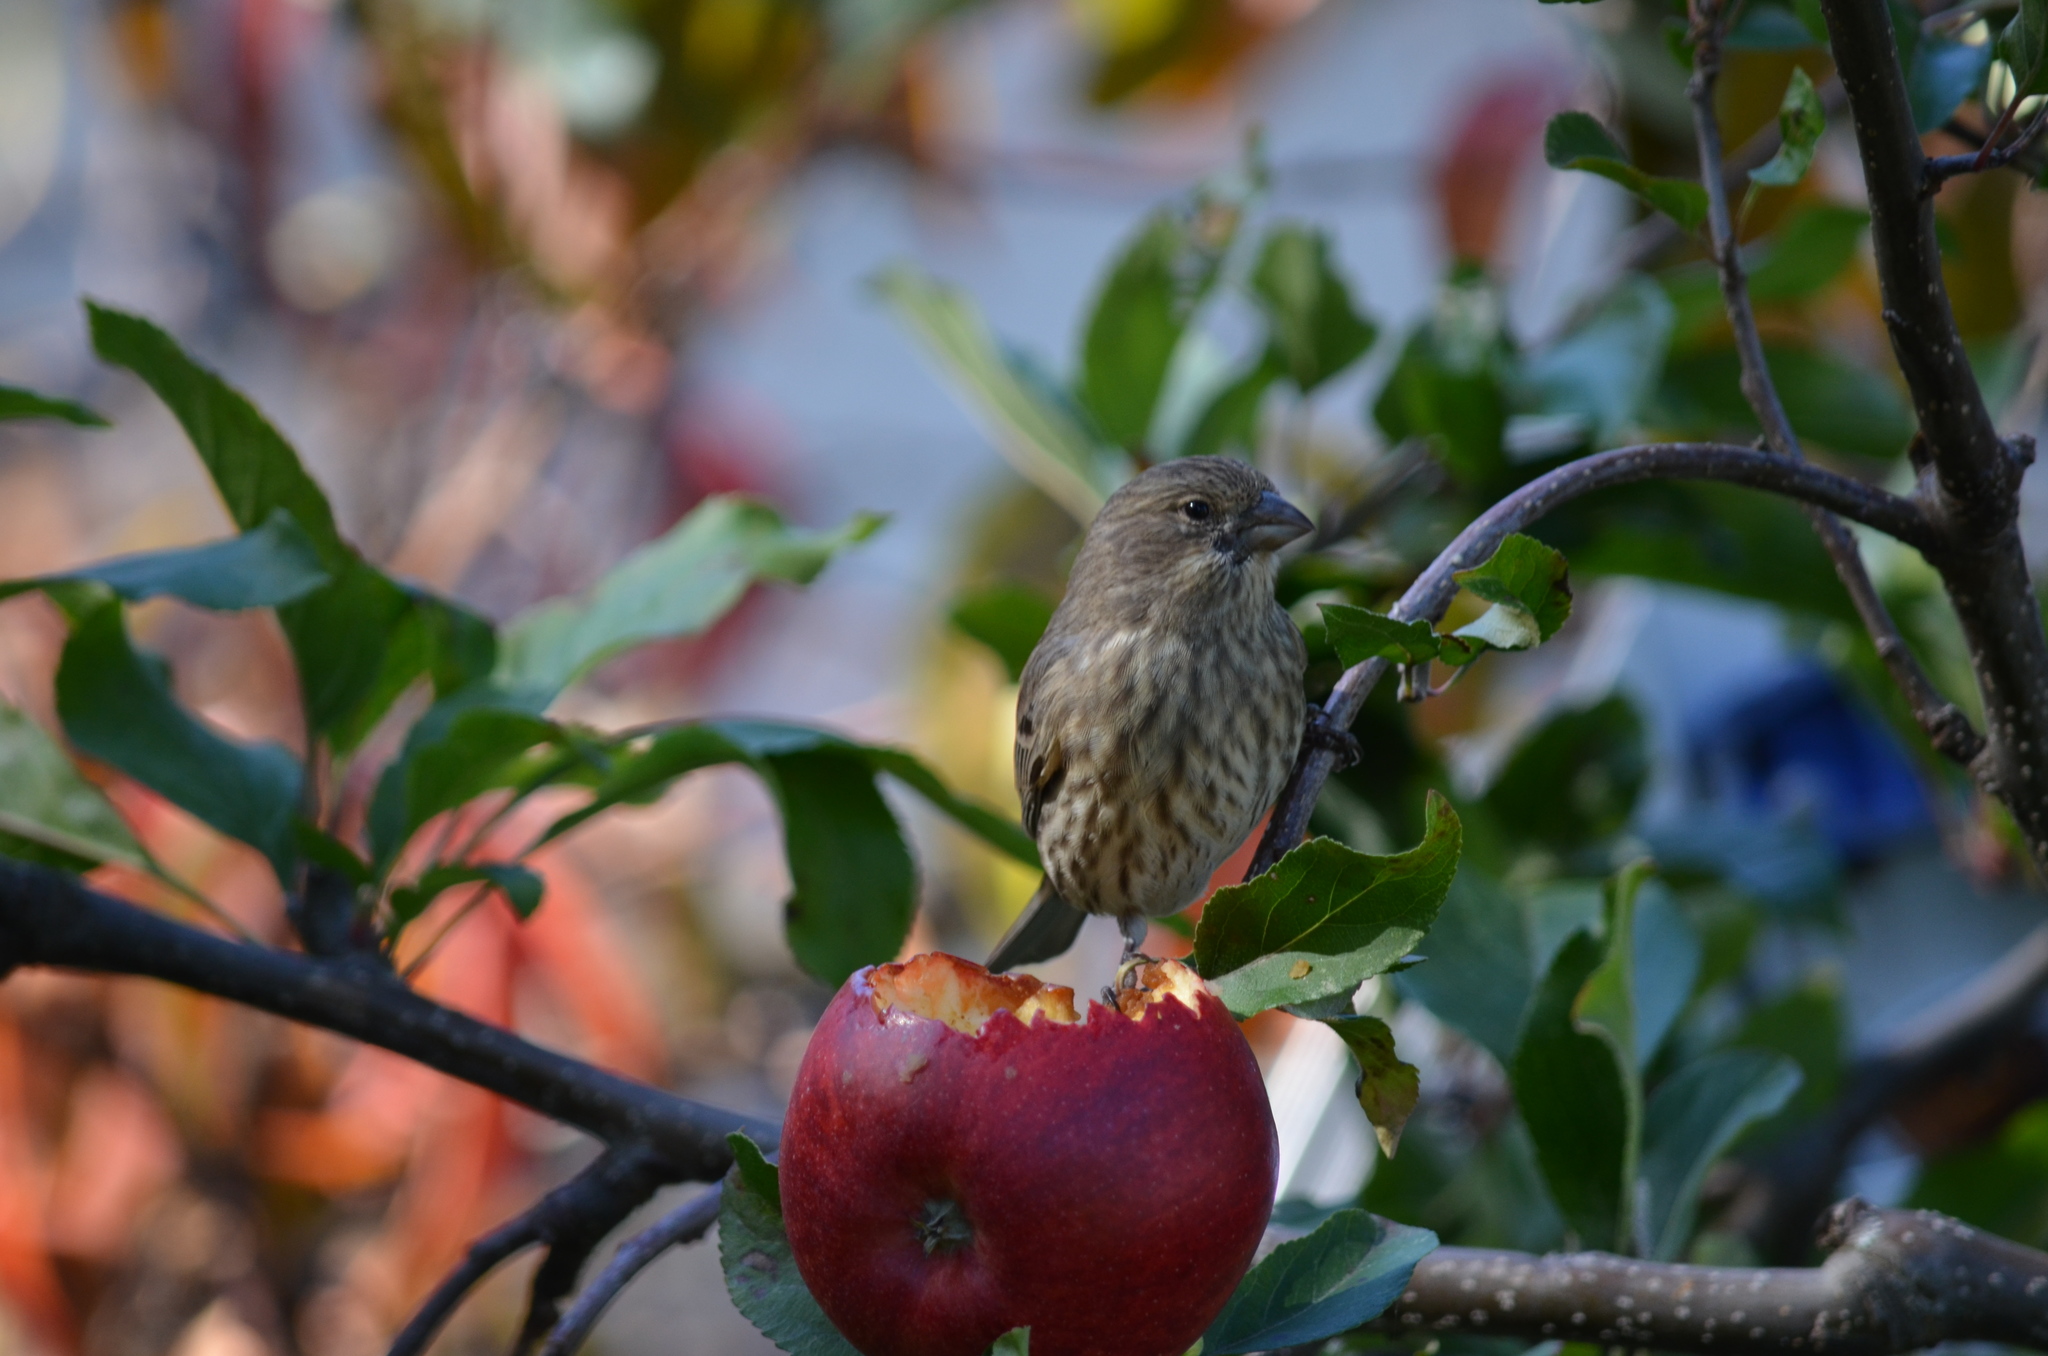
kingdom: Animalia
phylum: Chordata
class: Aves
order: Passeriformes
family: Fringillidae
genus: Haemorhous
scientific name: Haemorhous mexicanus
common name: House finch
